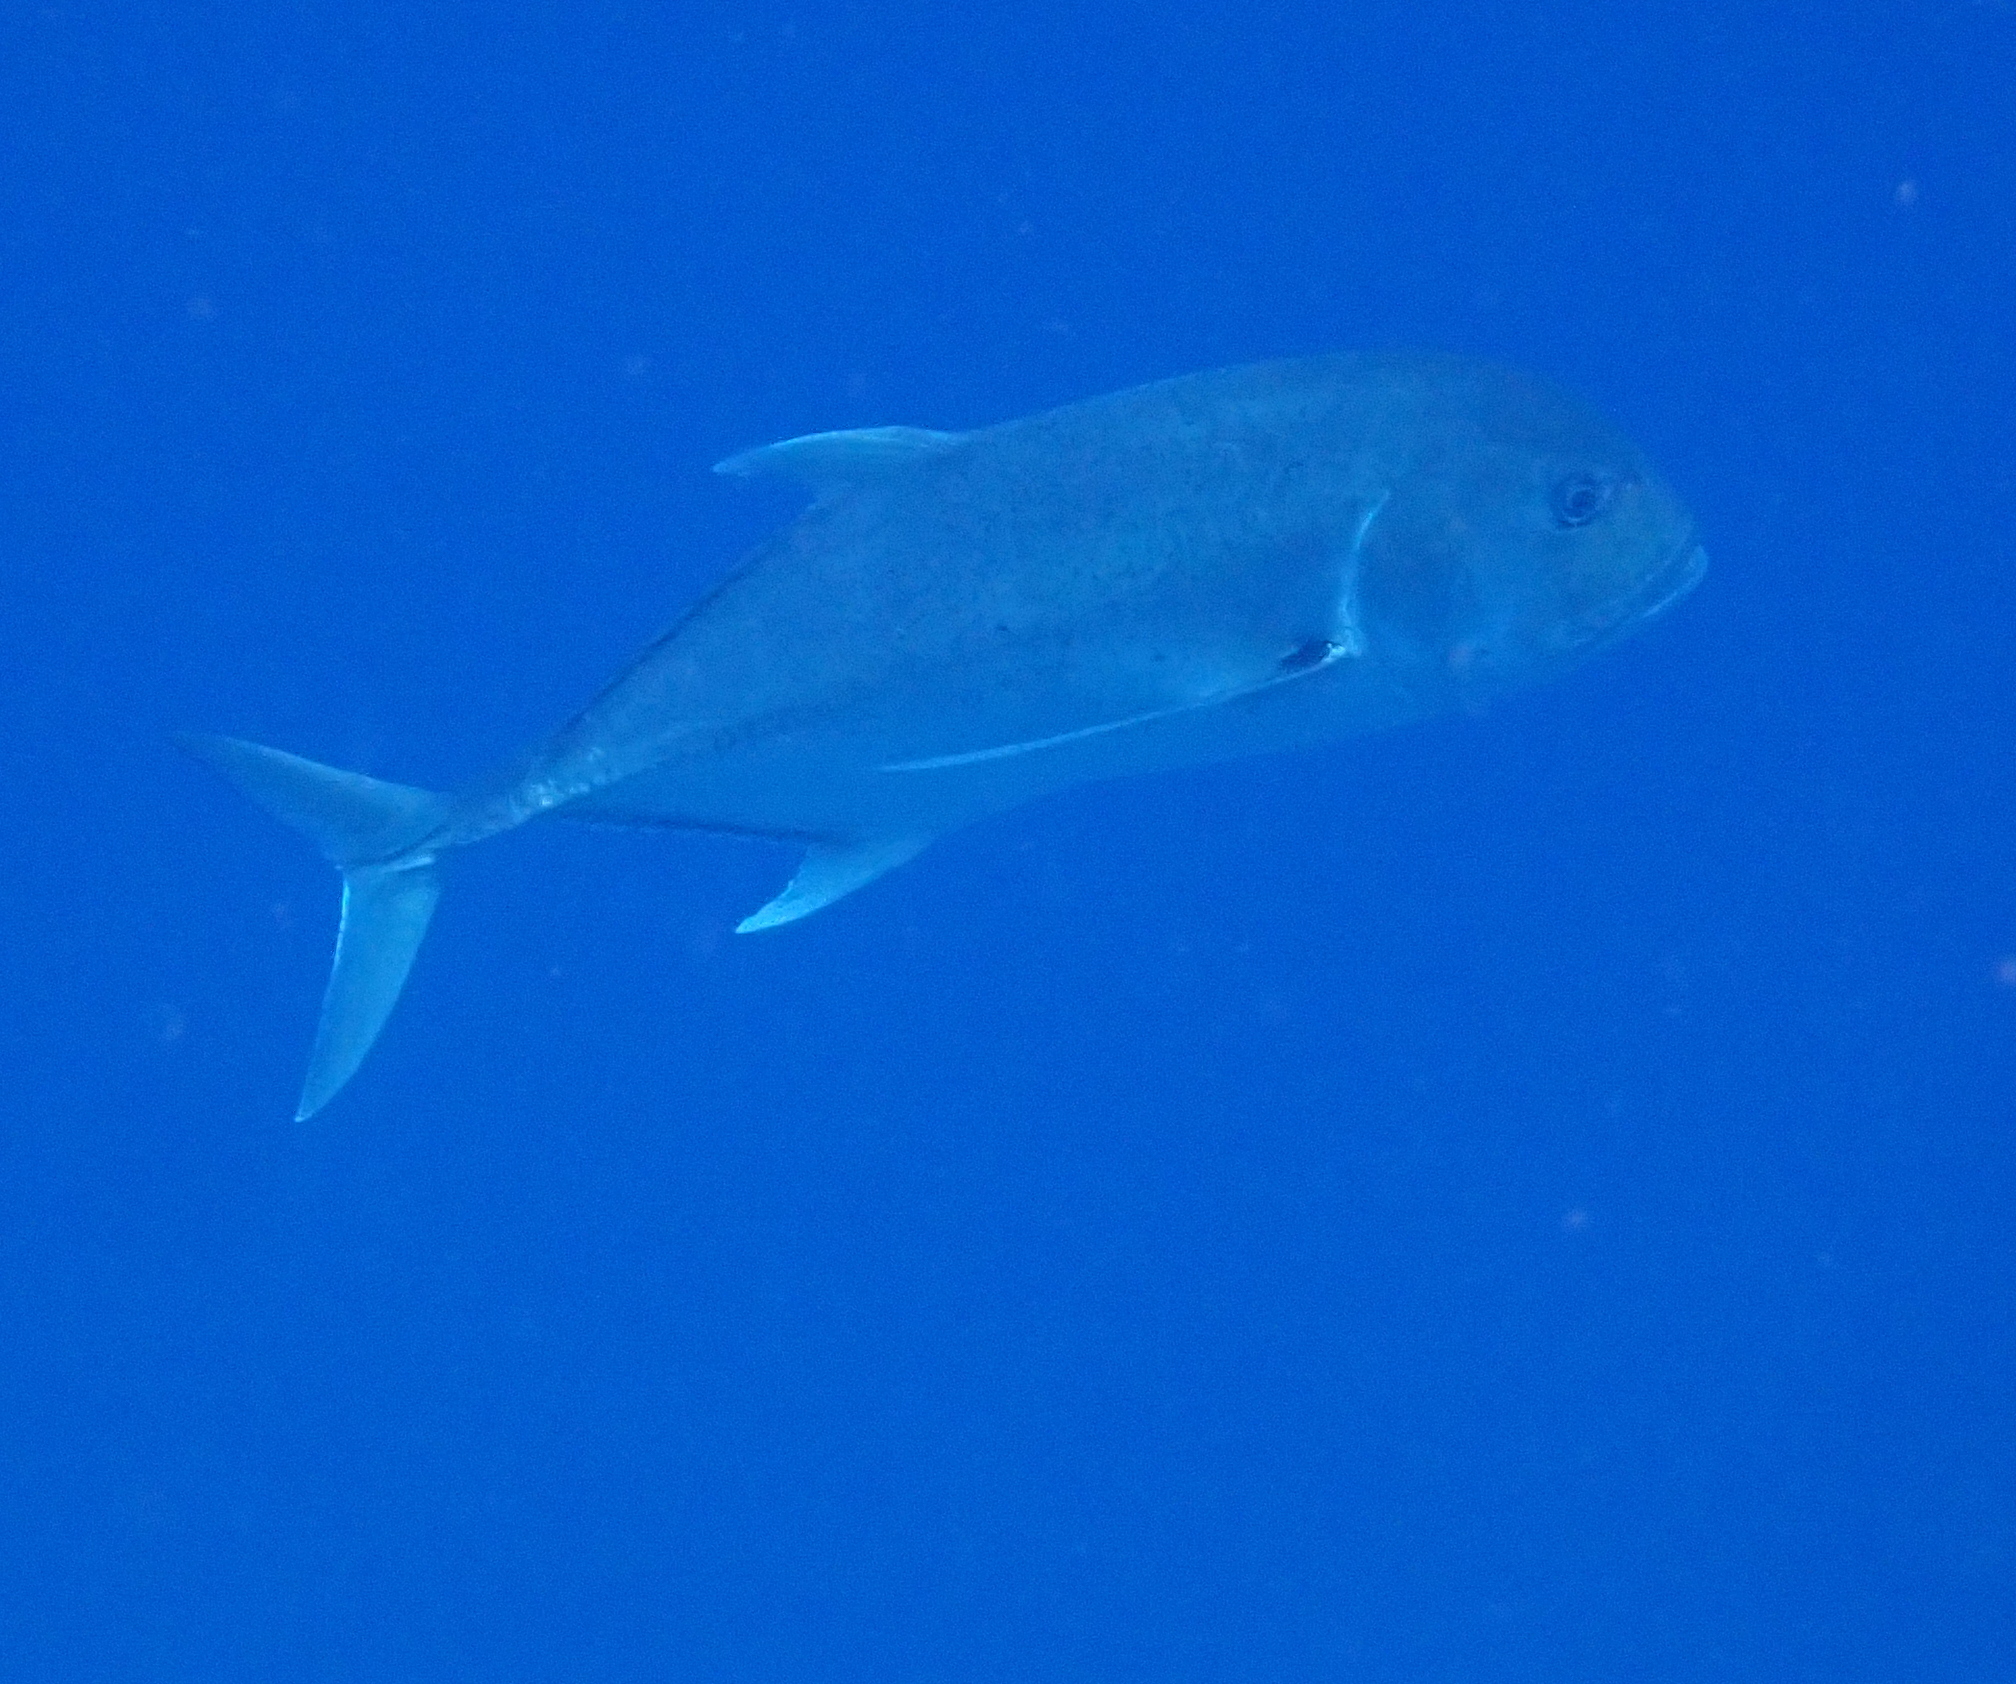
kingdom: Animalia
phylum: Chordata
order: Perciformes
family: Carangidae
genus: Caranx
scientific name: Caranx ignobilis
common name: Giant trevally
